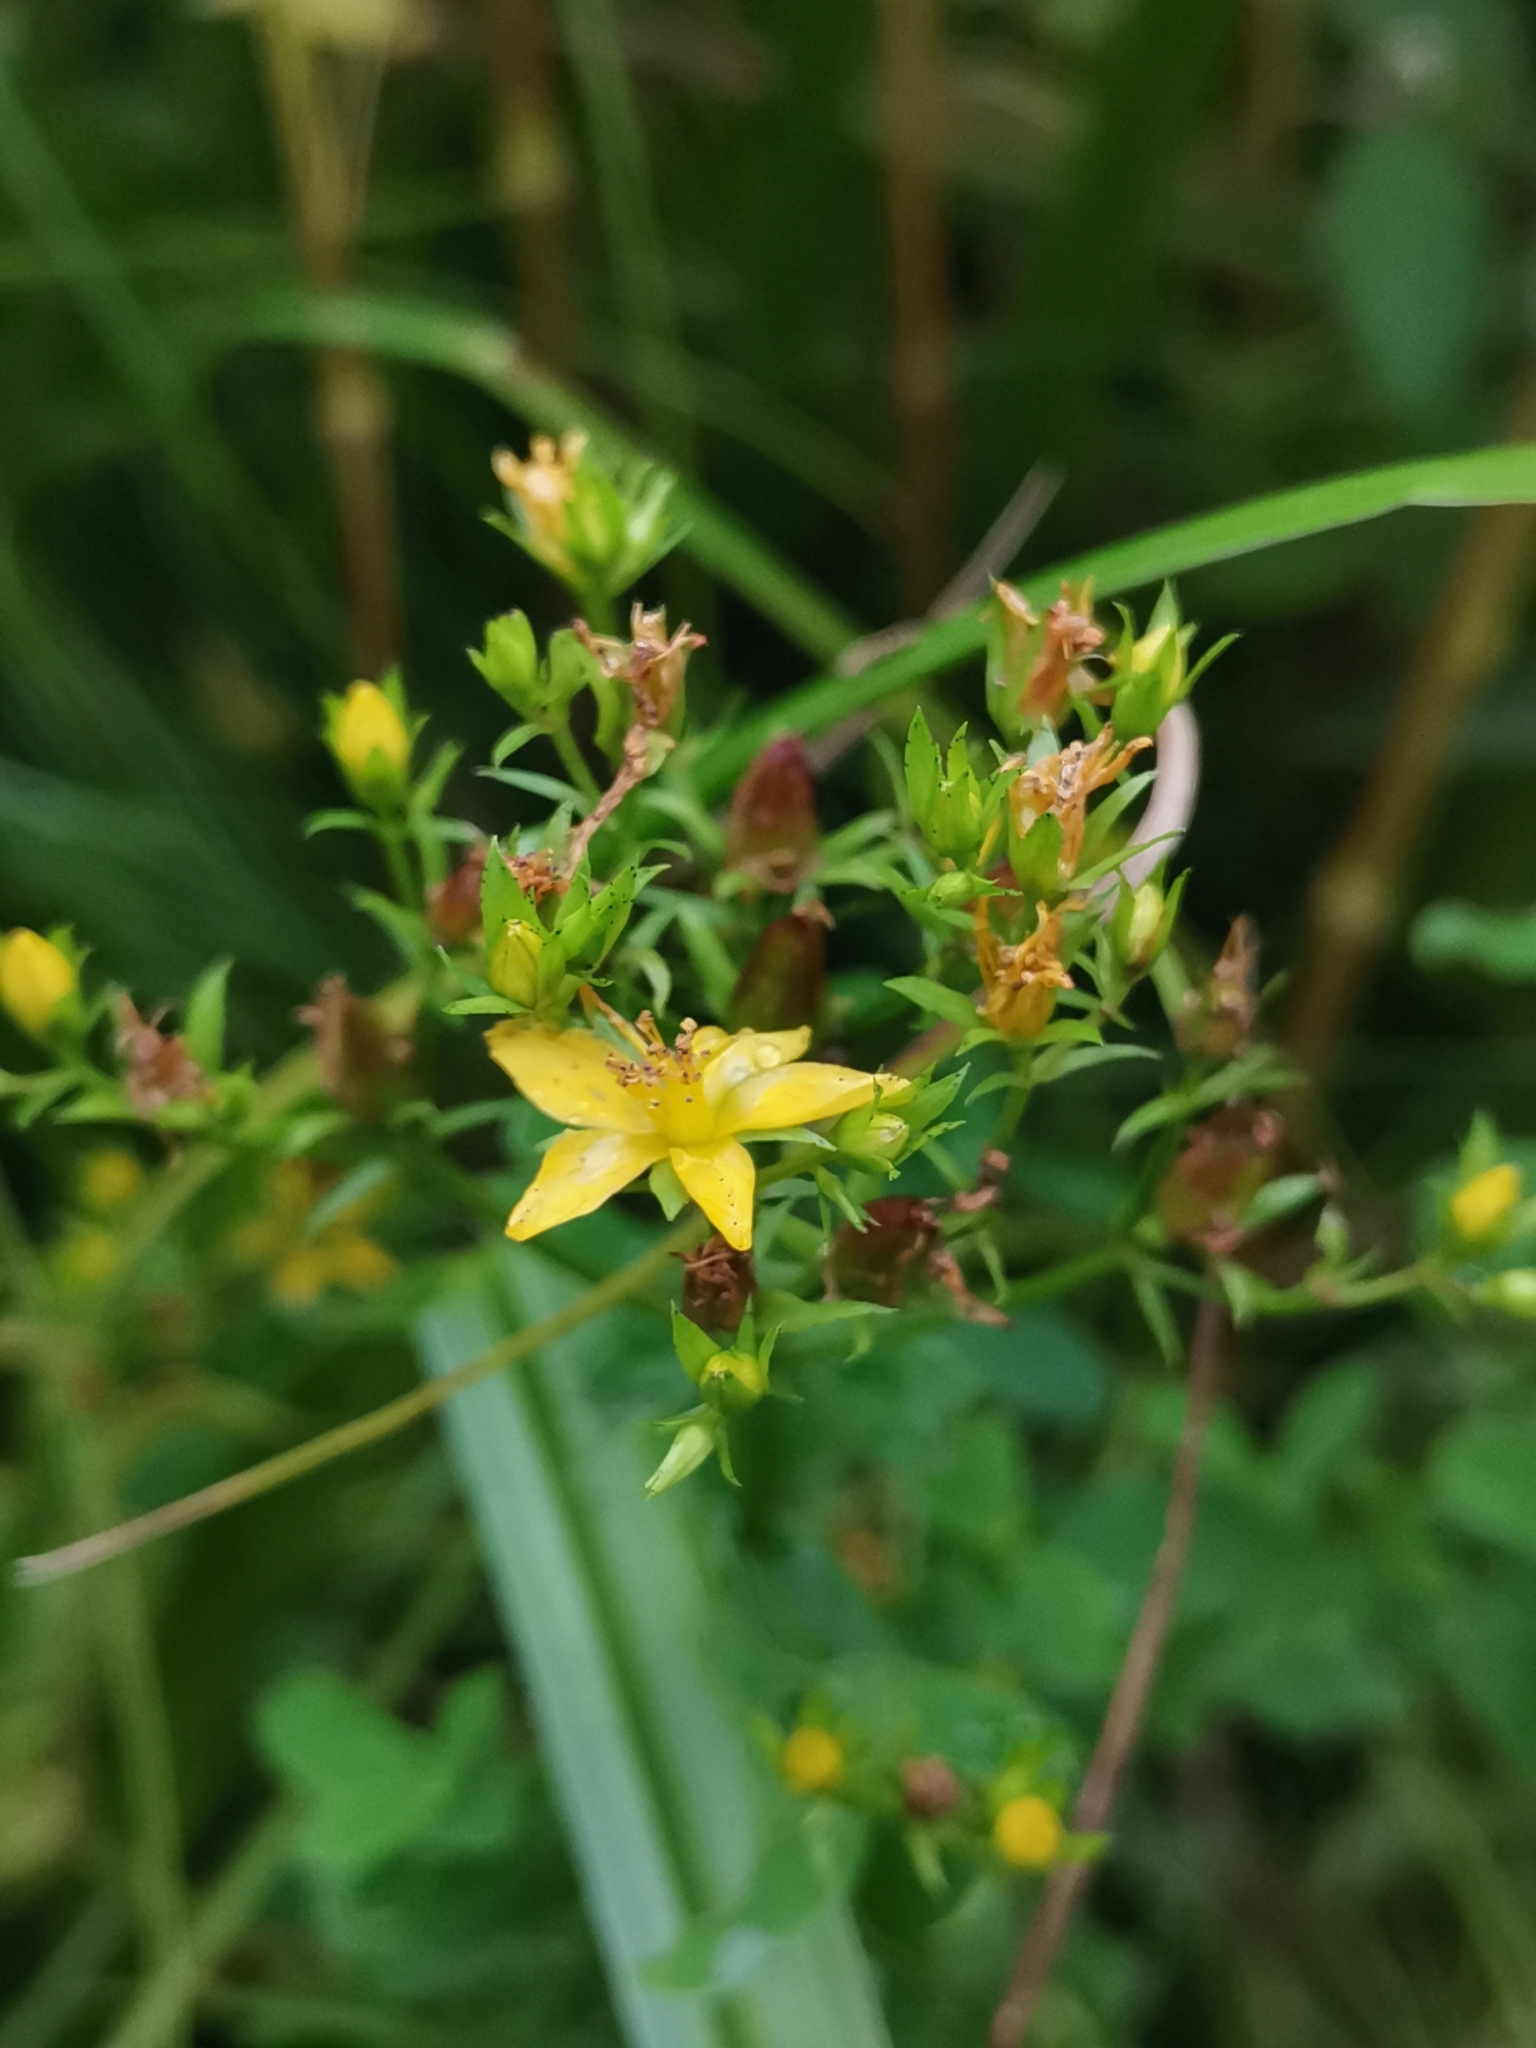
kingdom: Plantae
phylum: Tracheophyta
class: Magnoliopsida
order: Malpighiales
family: Hypericaceae
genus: Hypericum
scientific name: Hypericum tetrapterum
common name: Square-stalked st. john's-wort
